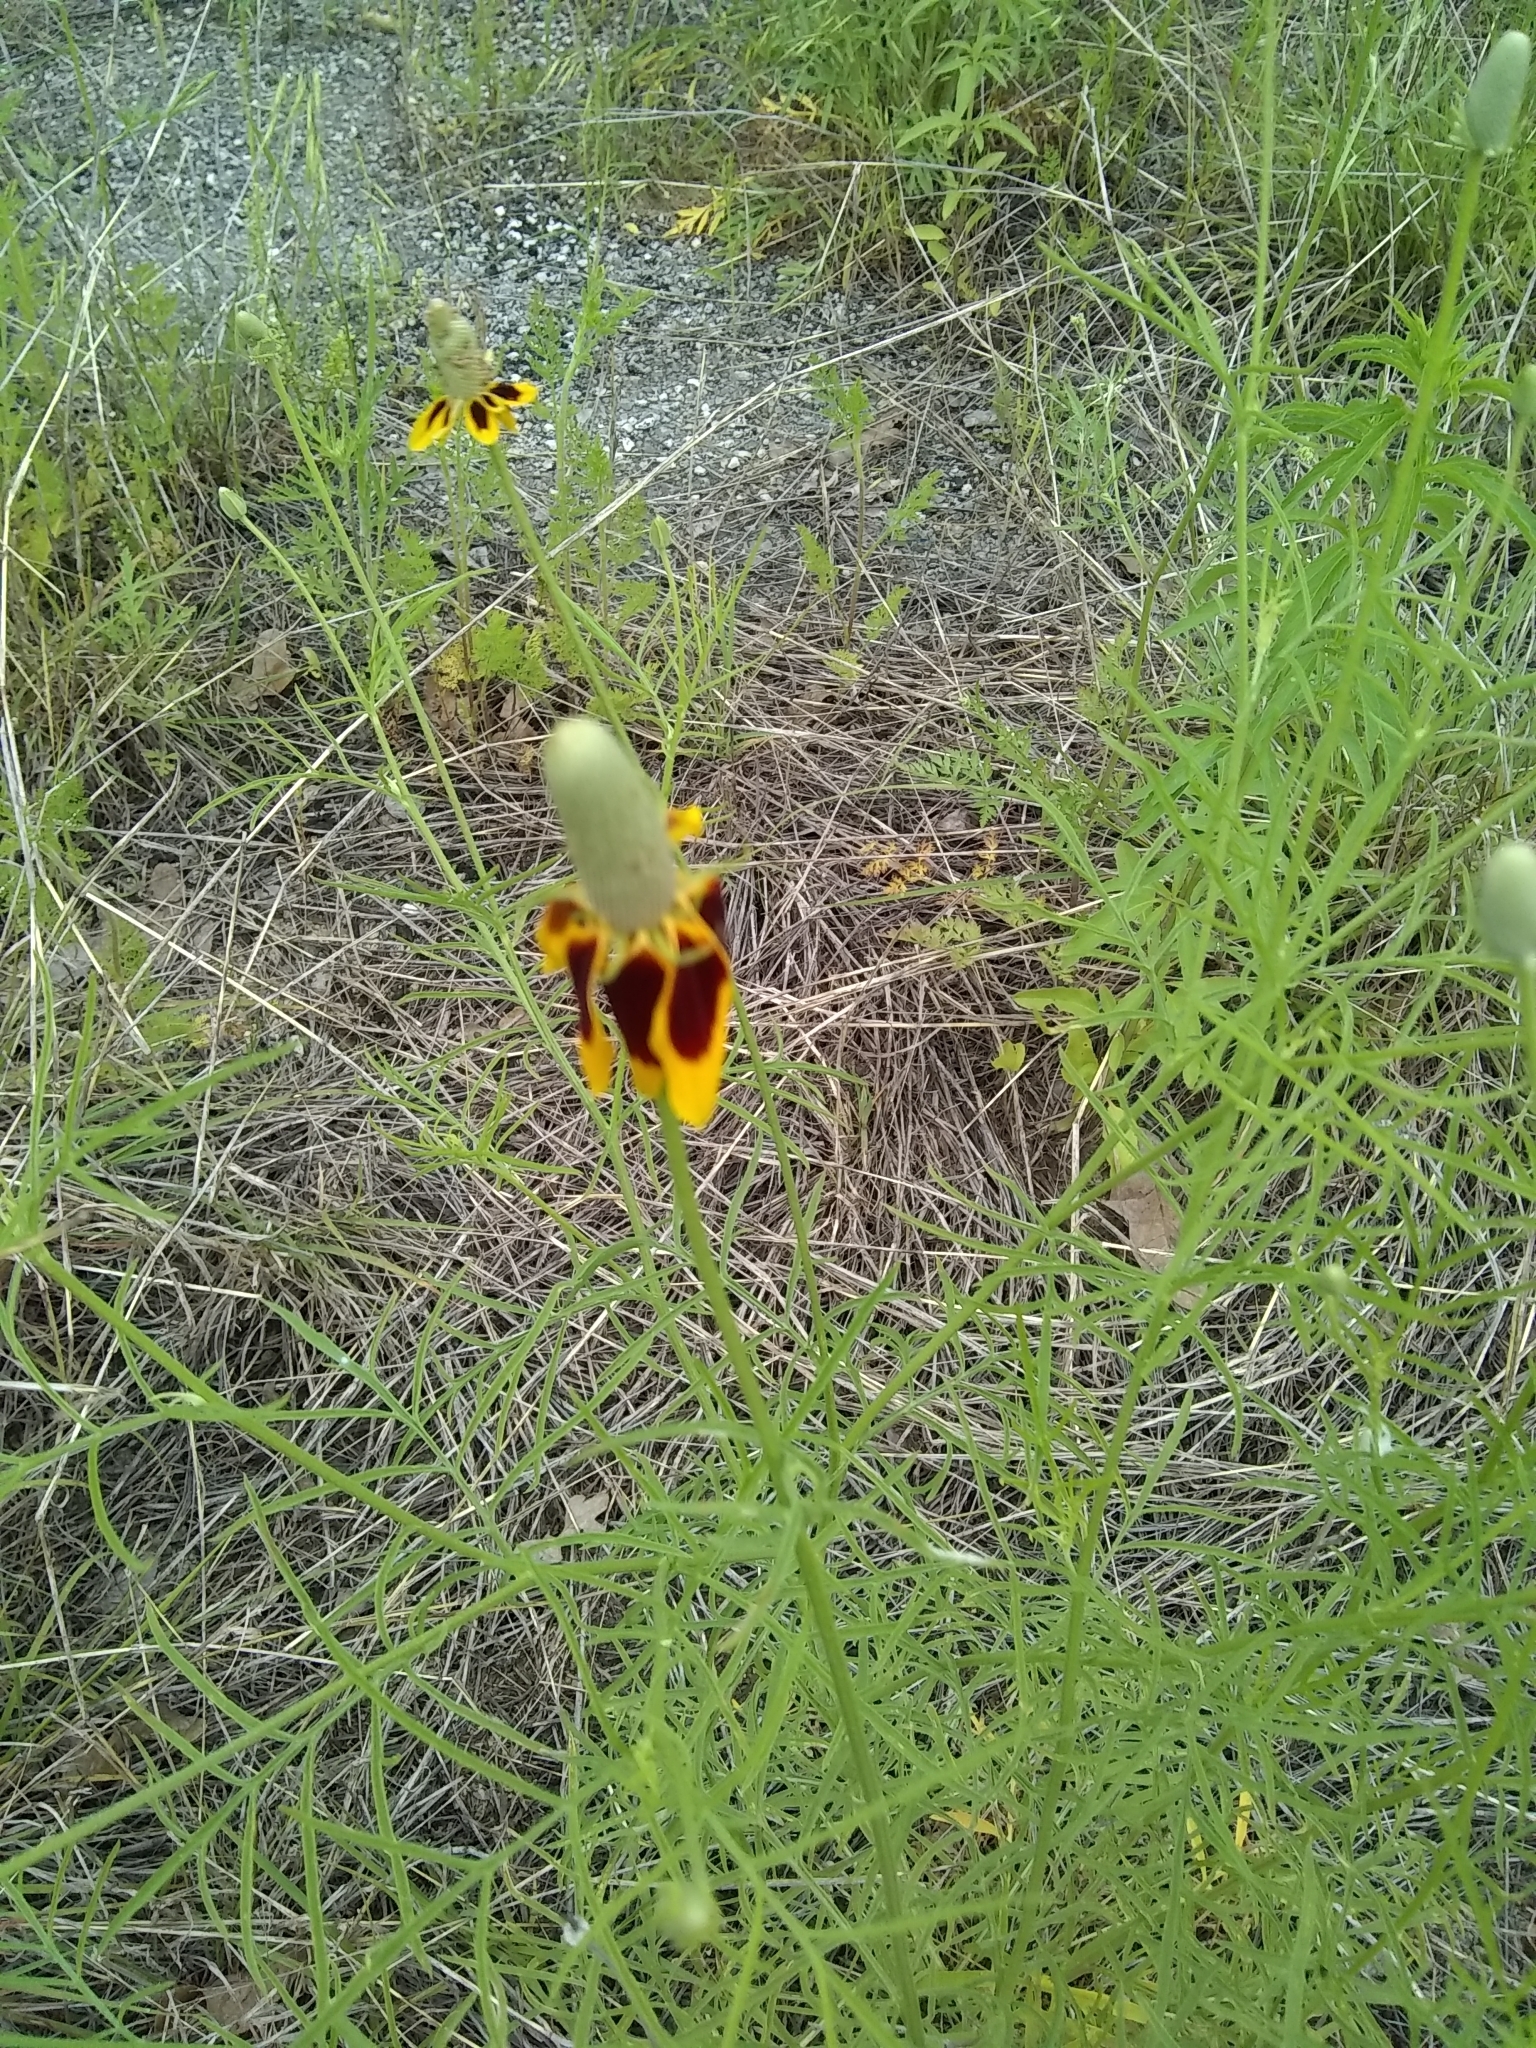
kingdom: Plantae
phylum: Tracheophyta
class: Magnoliopsida
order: Asterales
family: Asteraceae
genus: Ratibida
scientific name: Ratibida columnifera
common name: Prairie coneflower
